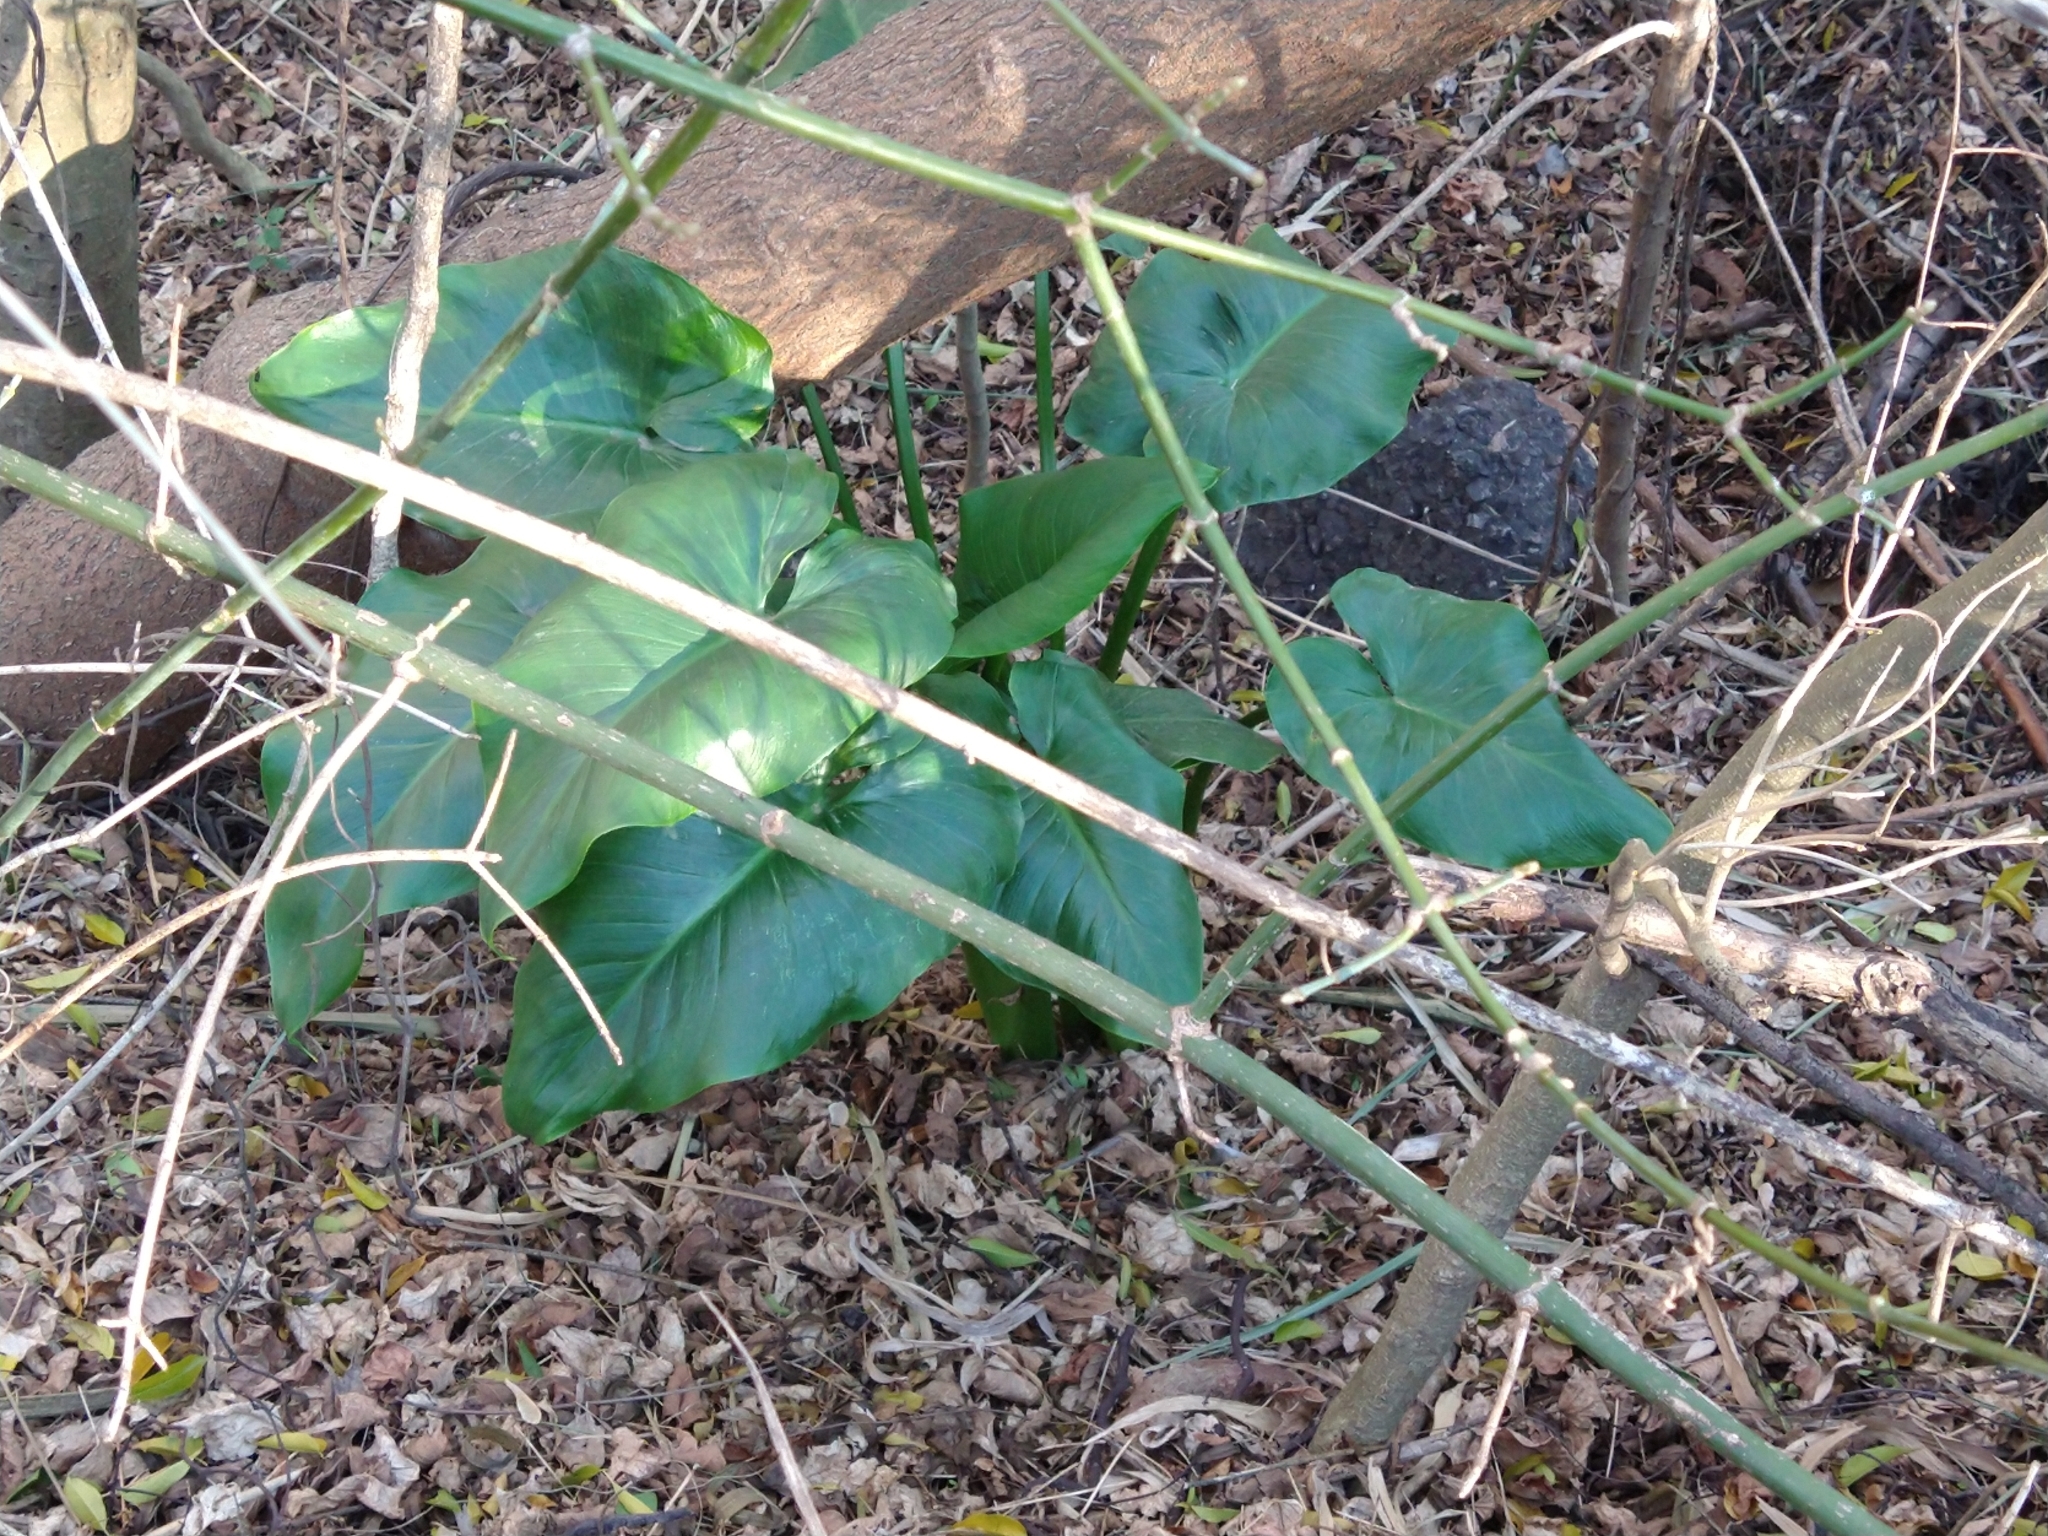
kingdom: Plantae
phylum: Tracheophyta
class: Liliopsida
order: Alismatales
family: Araceae
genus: Zantedeschia
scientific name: Zantedeschia aethiopica
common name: Altar-lily
